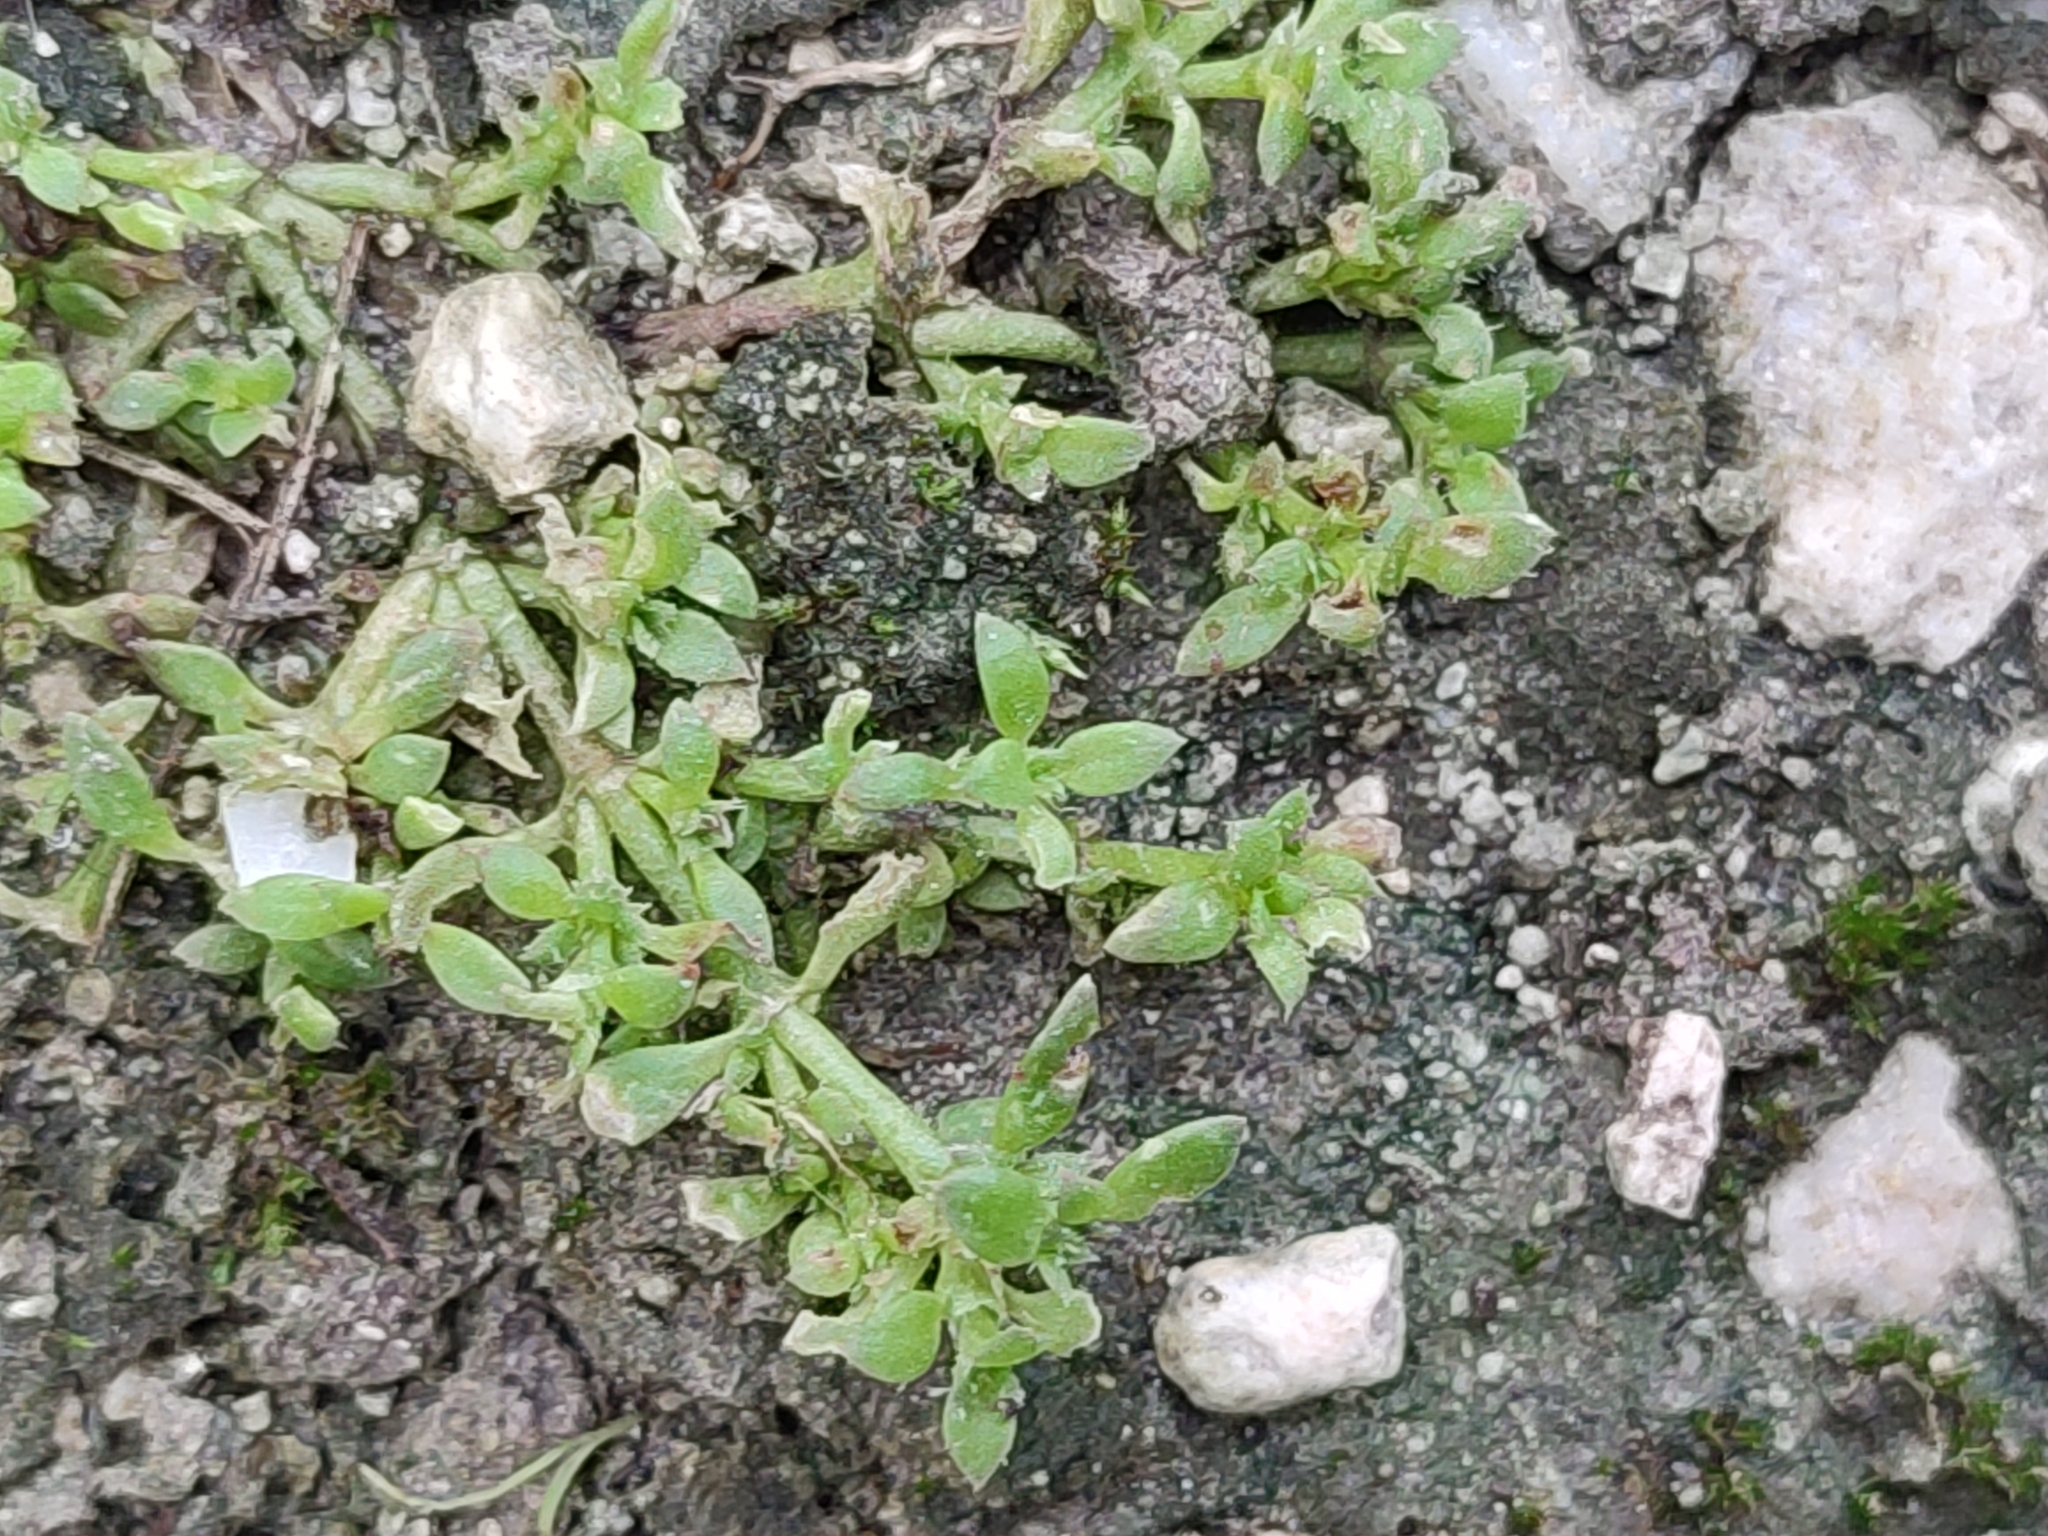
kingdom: Plantae
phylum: Tracheophyta
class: Magnoliopsida
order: Gentianales
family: Rubiaceae
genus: Dentella
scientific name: Dentella repens
